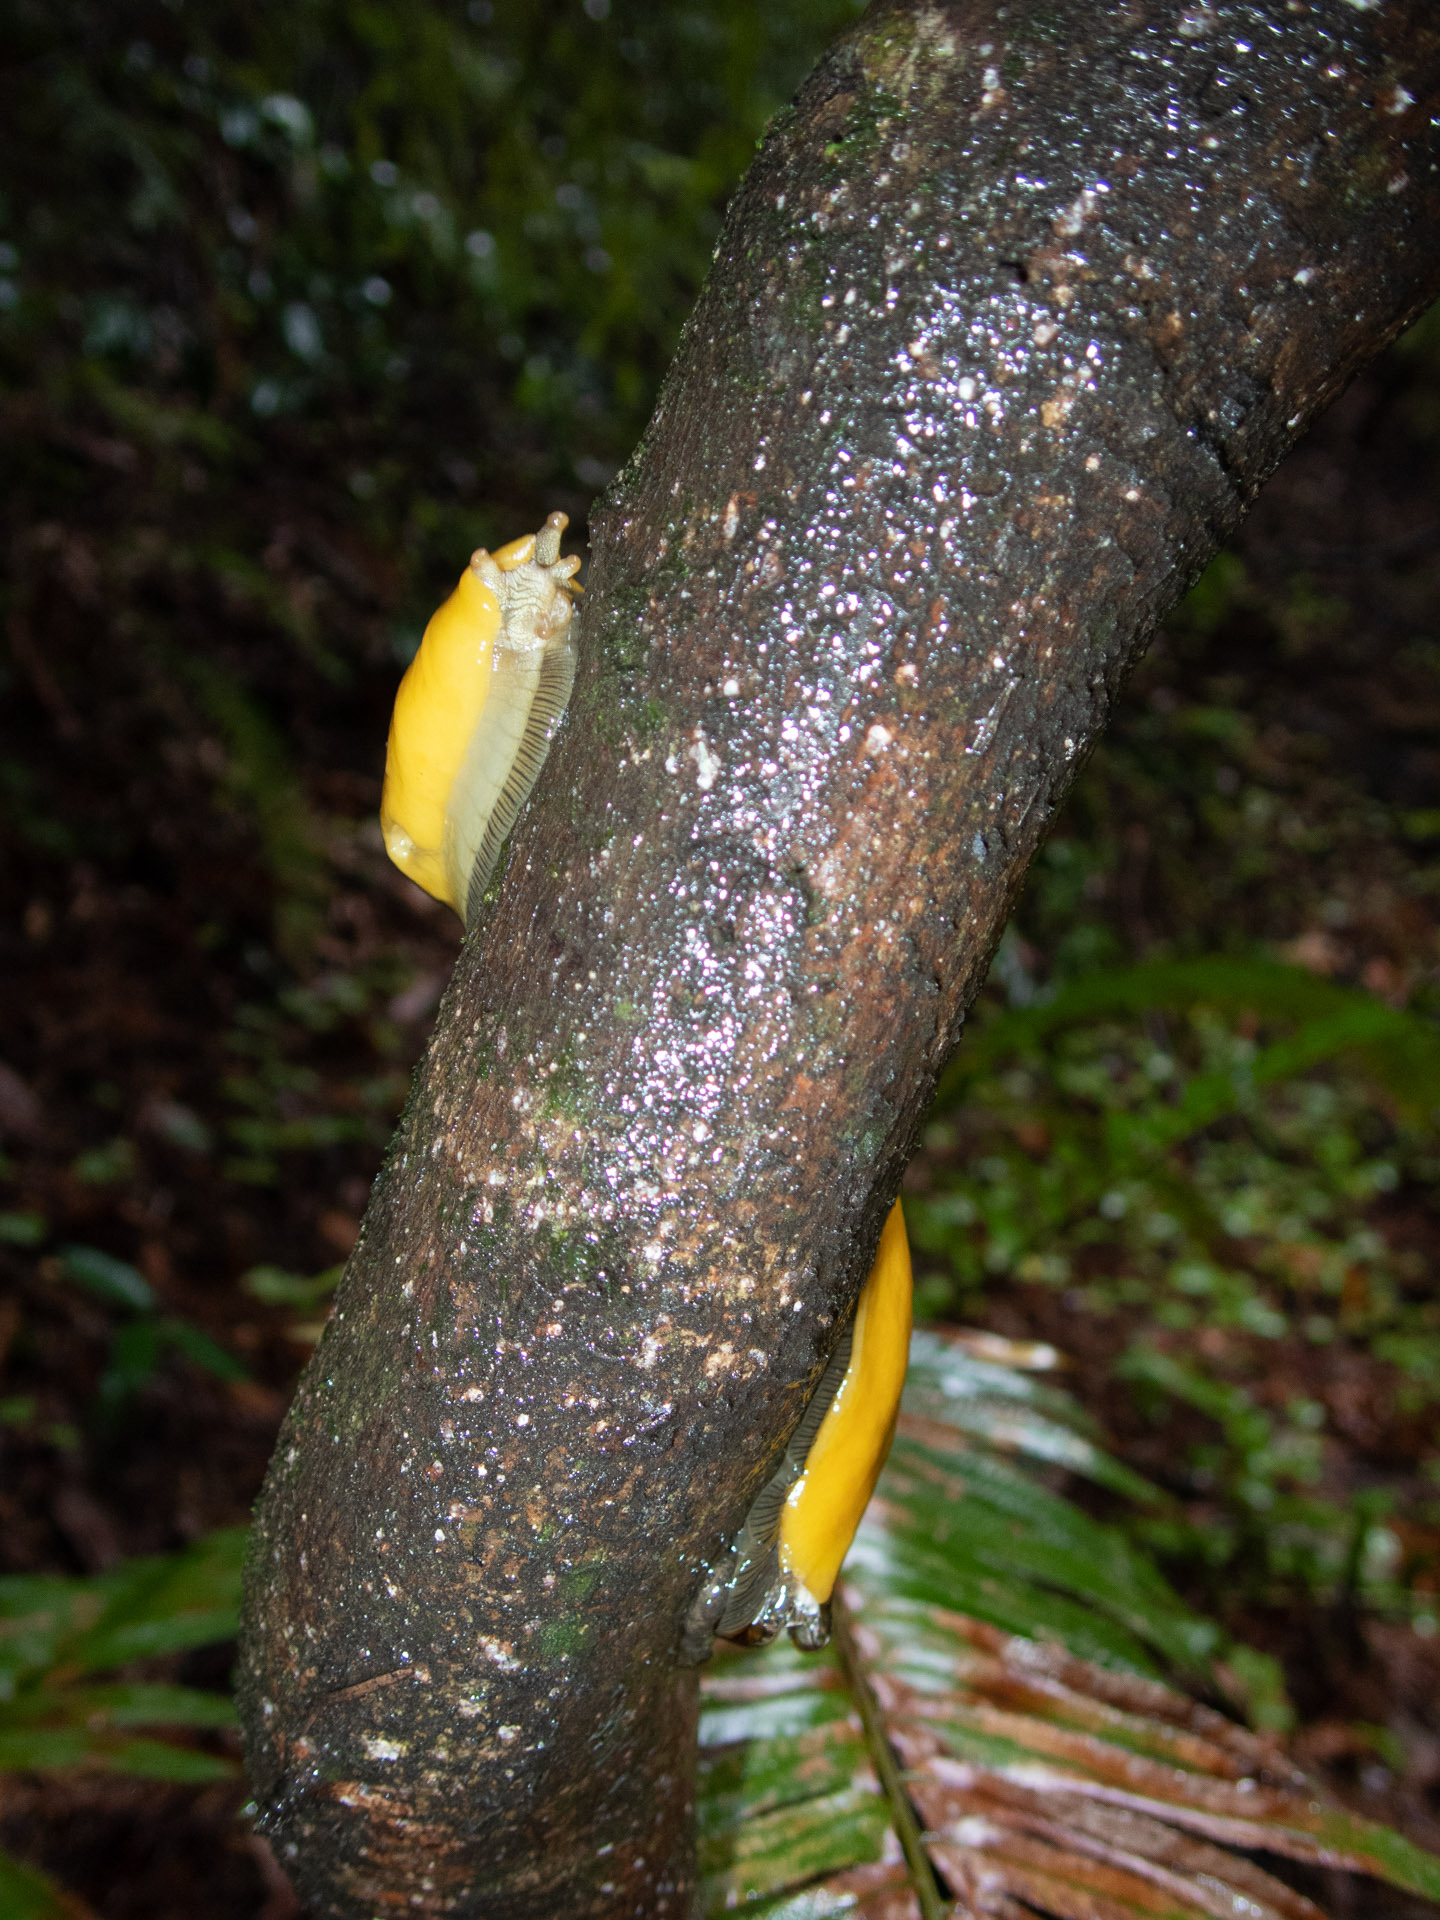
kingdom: Animalia
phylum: Mollusca
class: Gastropoda
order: Stylommatophora
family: Ariolimacidae
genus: Ariolimax
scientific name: Ariolimax dolichophallus
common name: Slender banana slug
